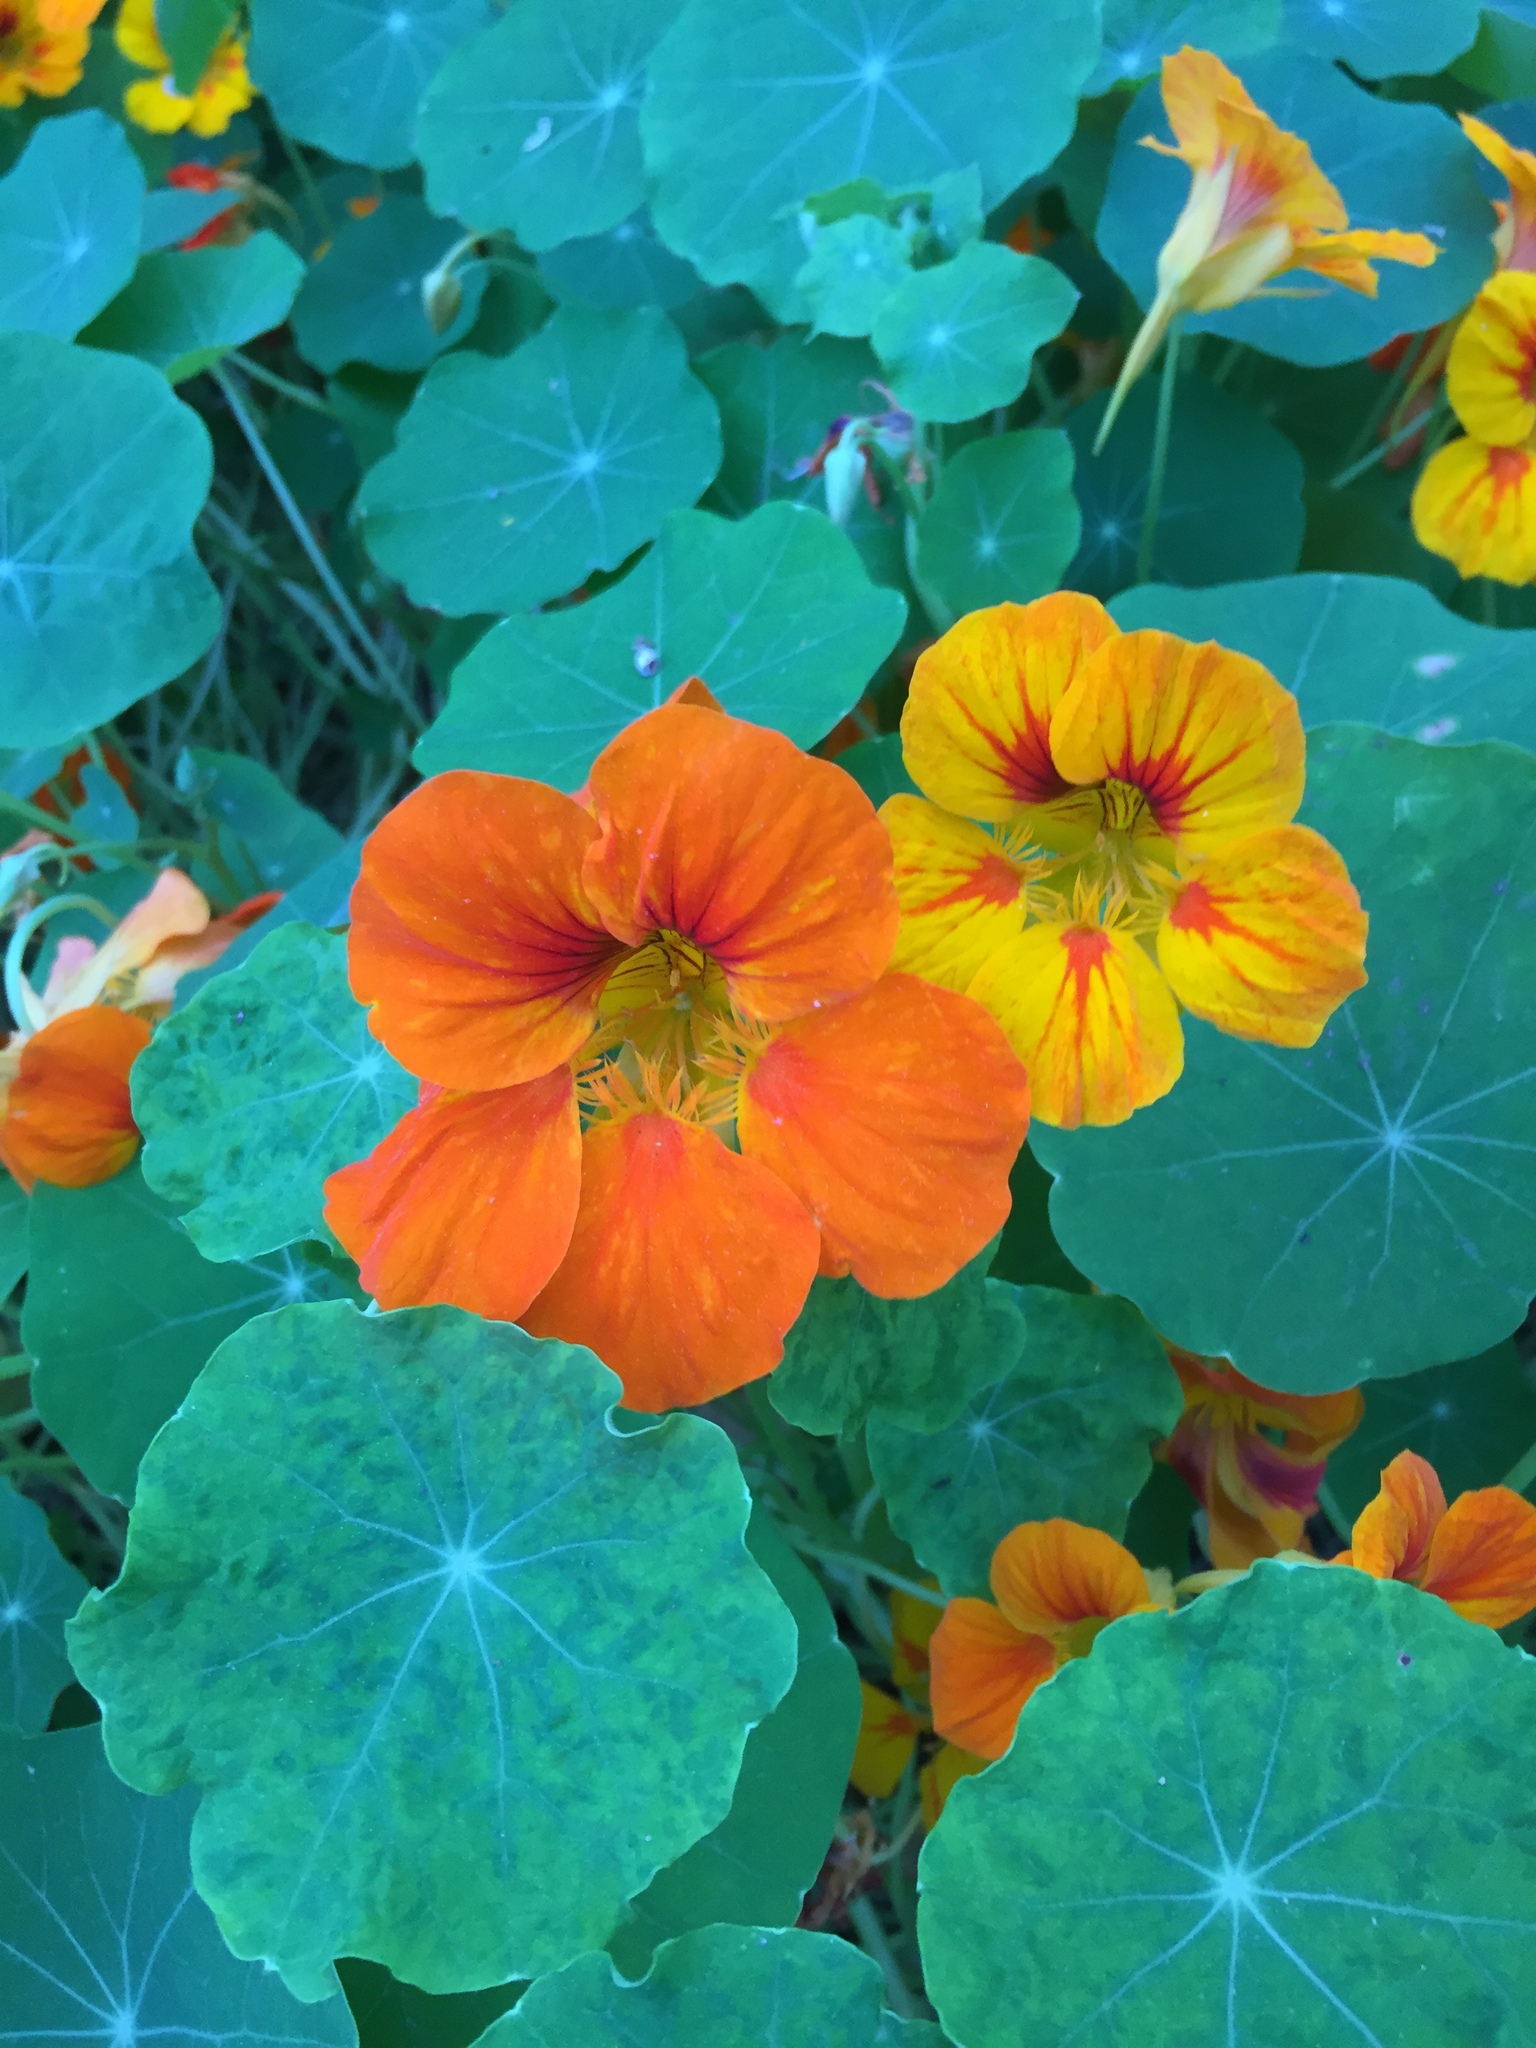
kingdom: Plantae
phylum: Tracheophyta
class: Magnoliopsida
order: Brassicales
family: Tropaeolaceae
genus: Tropaeolum
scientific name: Tropaeolum majus
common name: Nasturtium
